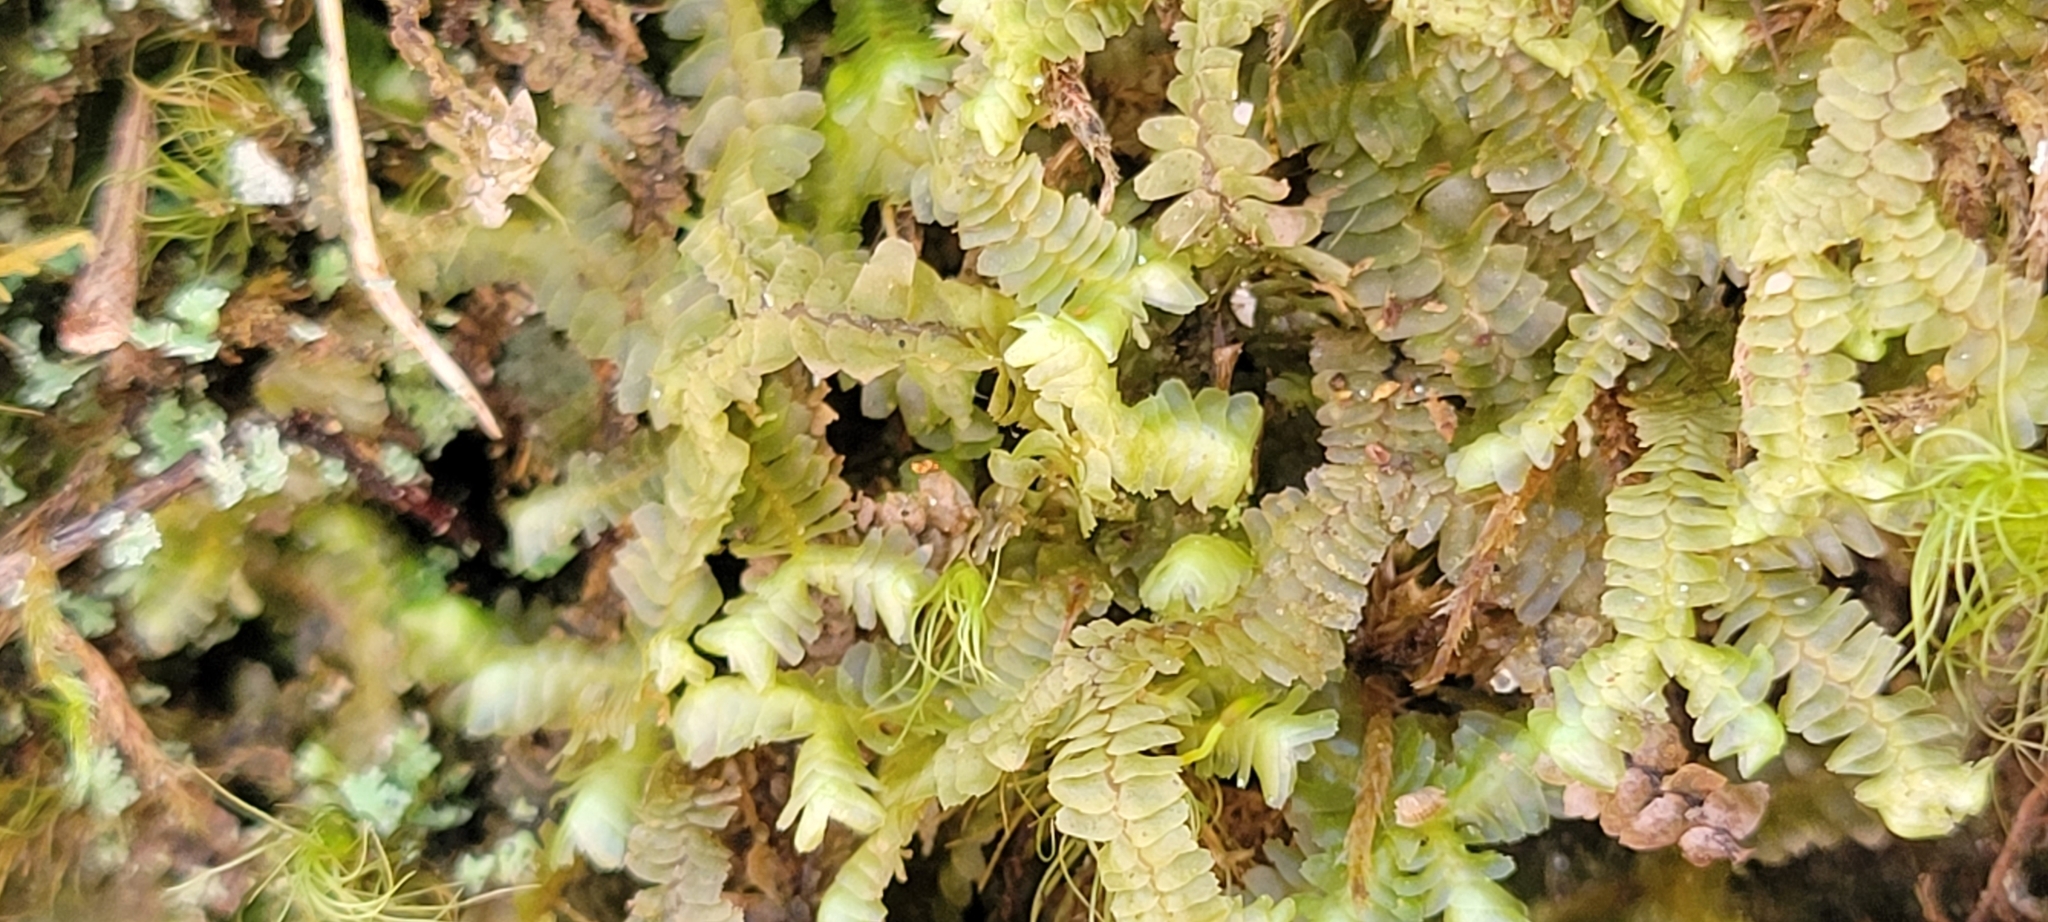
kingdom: Plantae
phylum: Marchantiophyta
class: Jungermanniopsida
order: Jungermanniales
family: Lepidoziaceae
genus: Bazzania
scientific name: Bazzania trilobata
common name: Three-lobed whipwort
